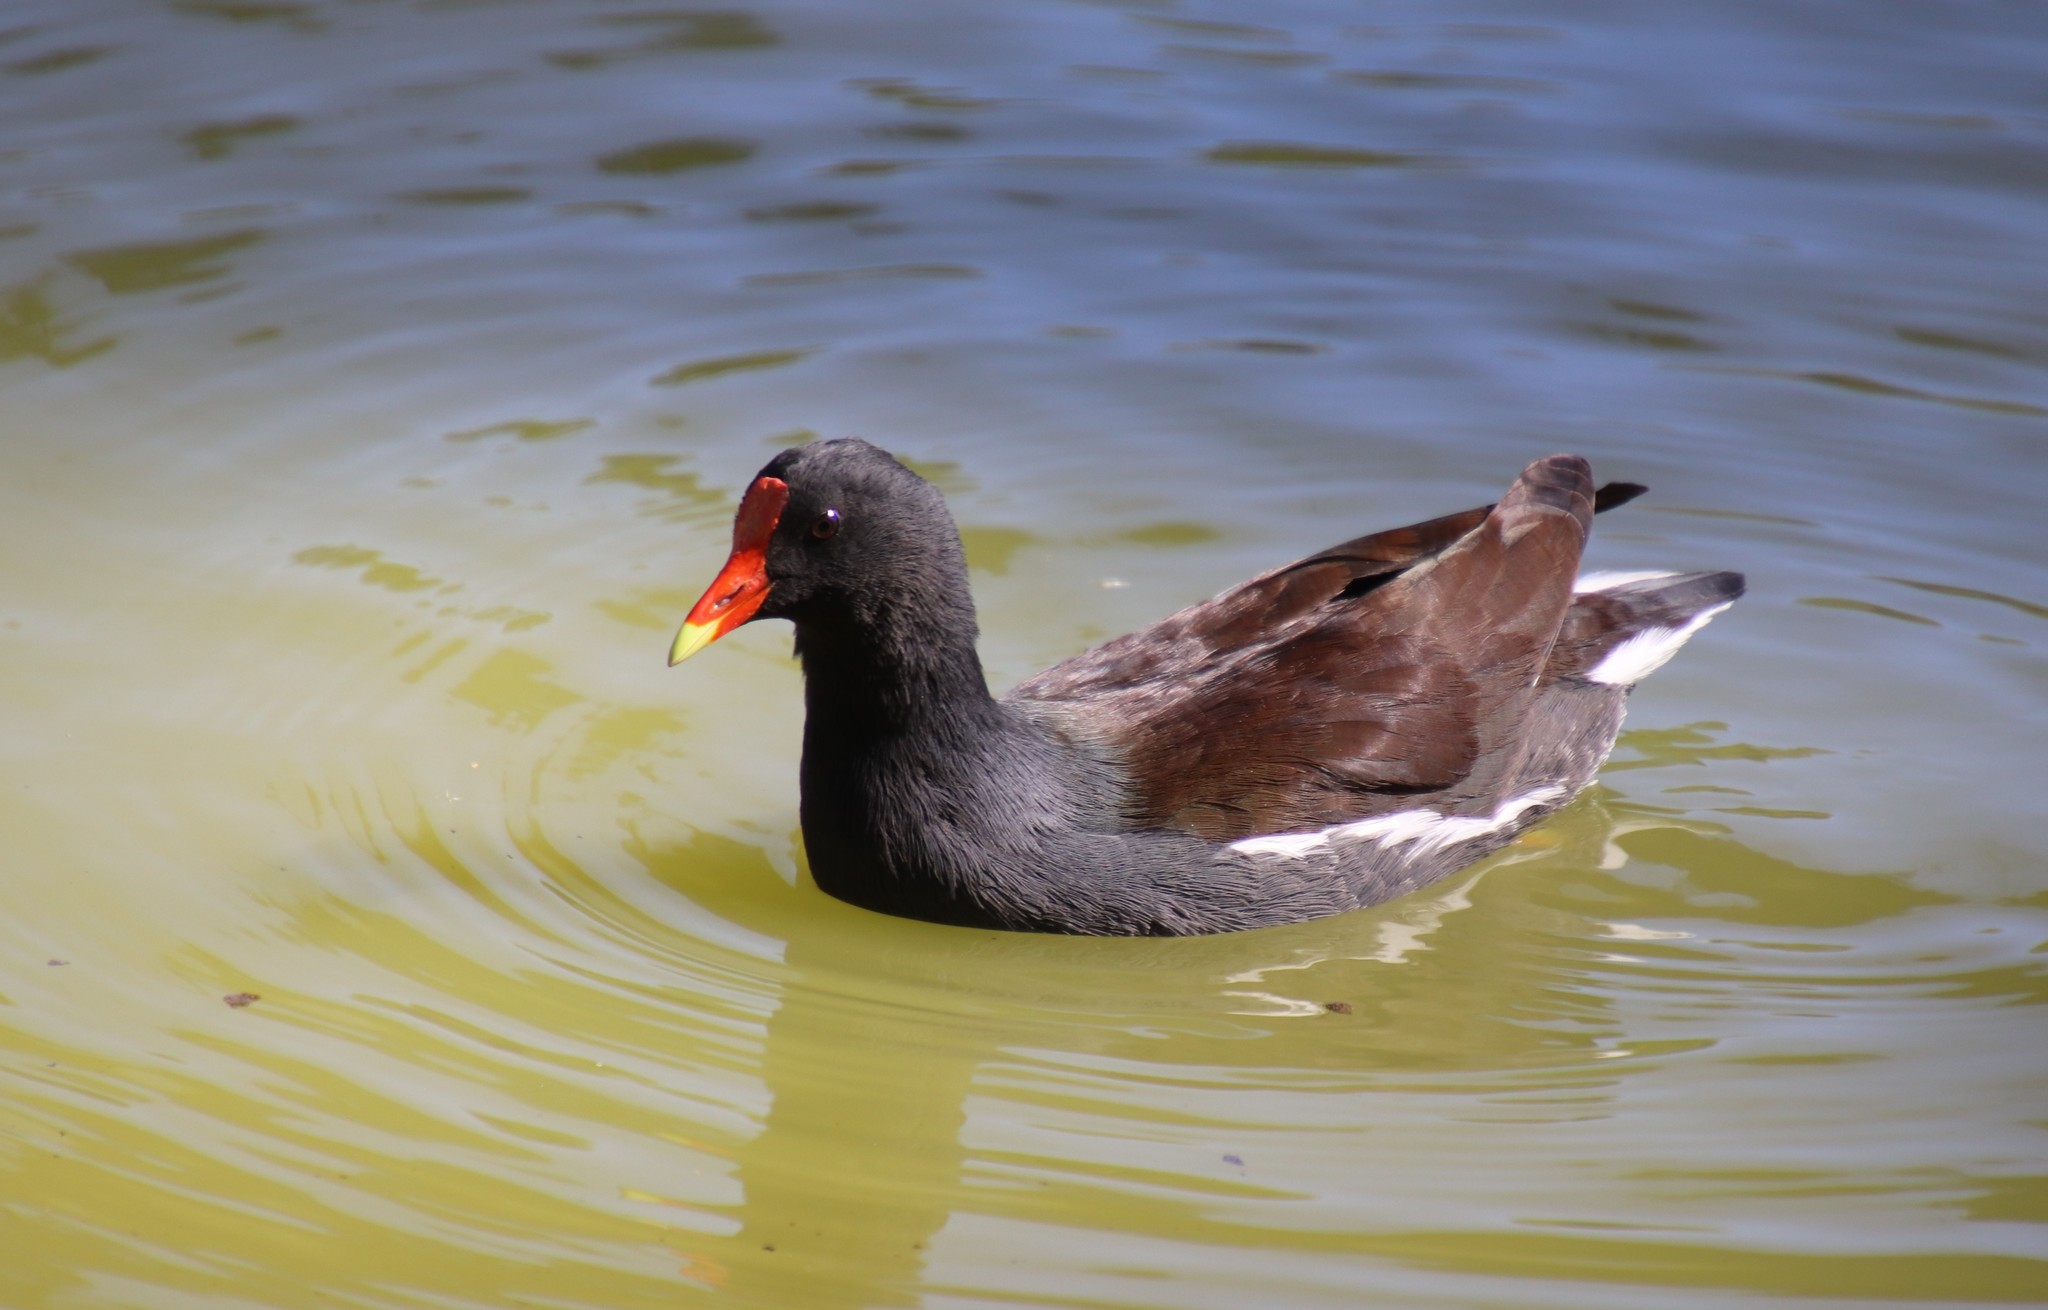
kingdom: Animalia
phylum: Chordata
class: Aves
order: Gruiformes
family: Rallidae
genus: Gallinula
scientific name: Gallinula chloropus
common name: Common moorhen
